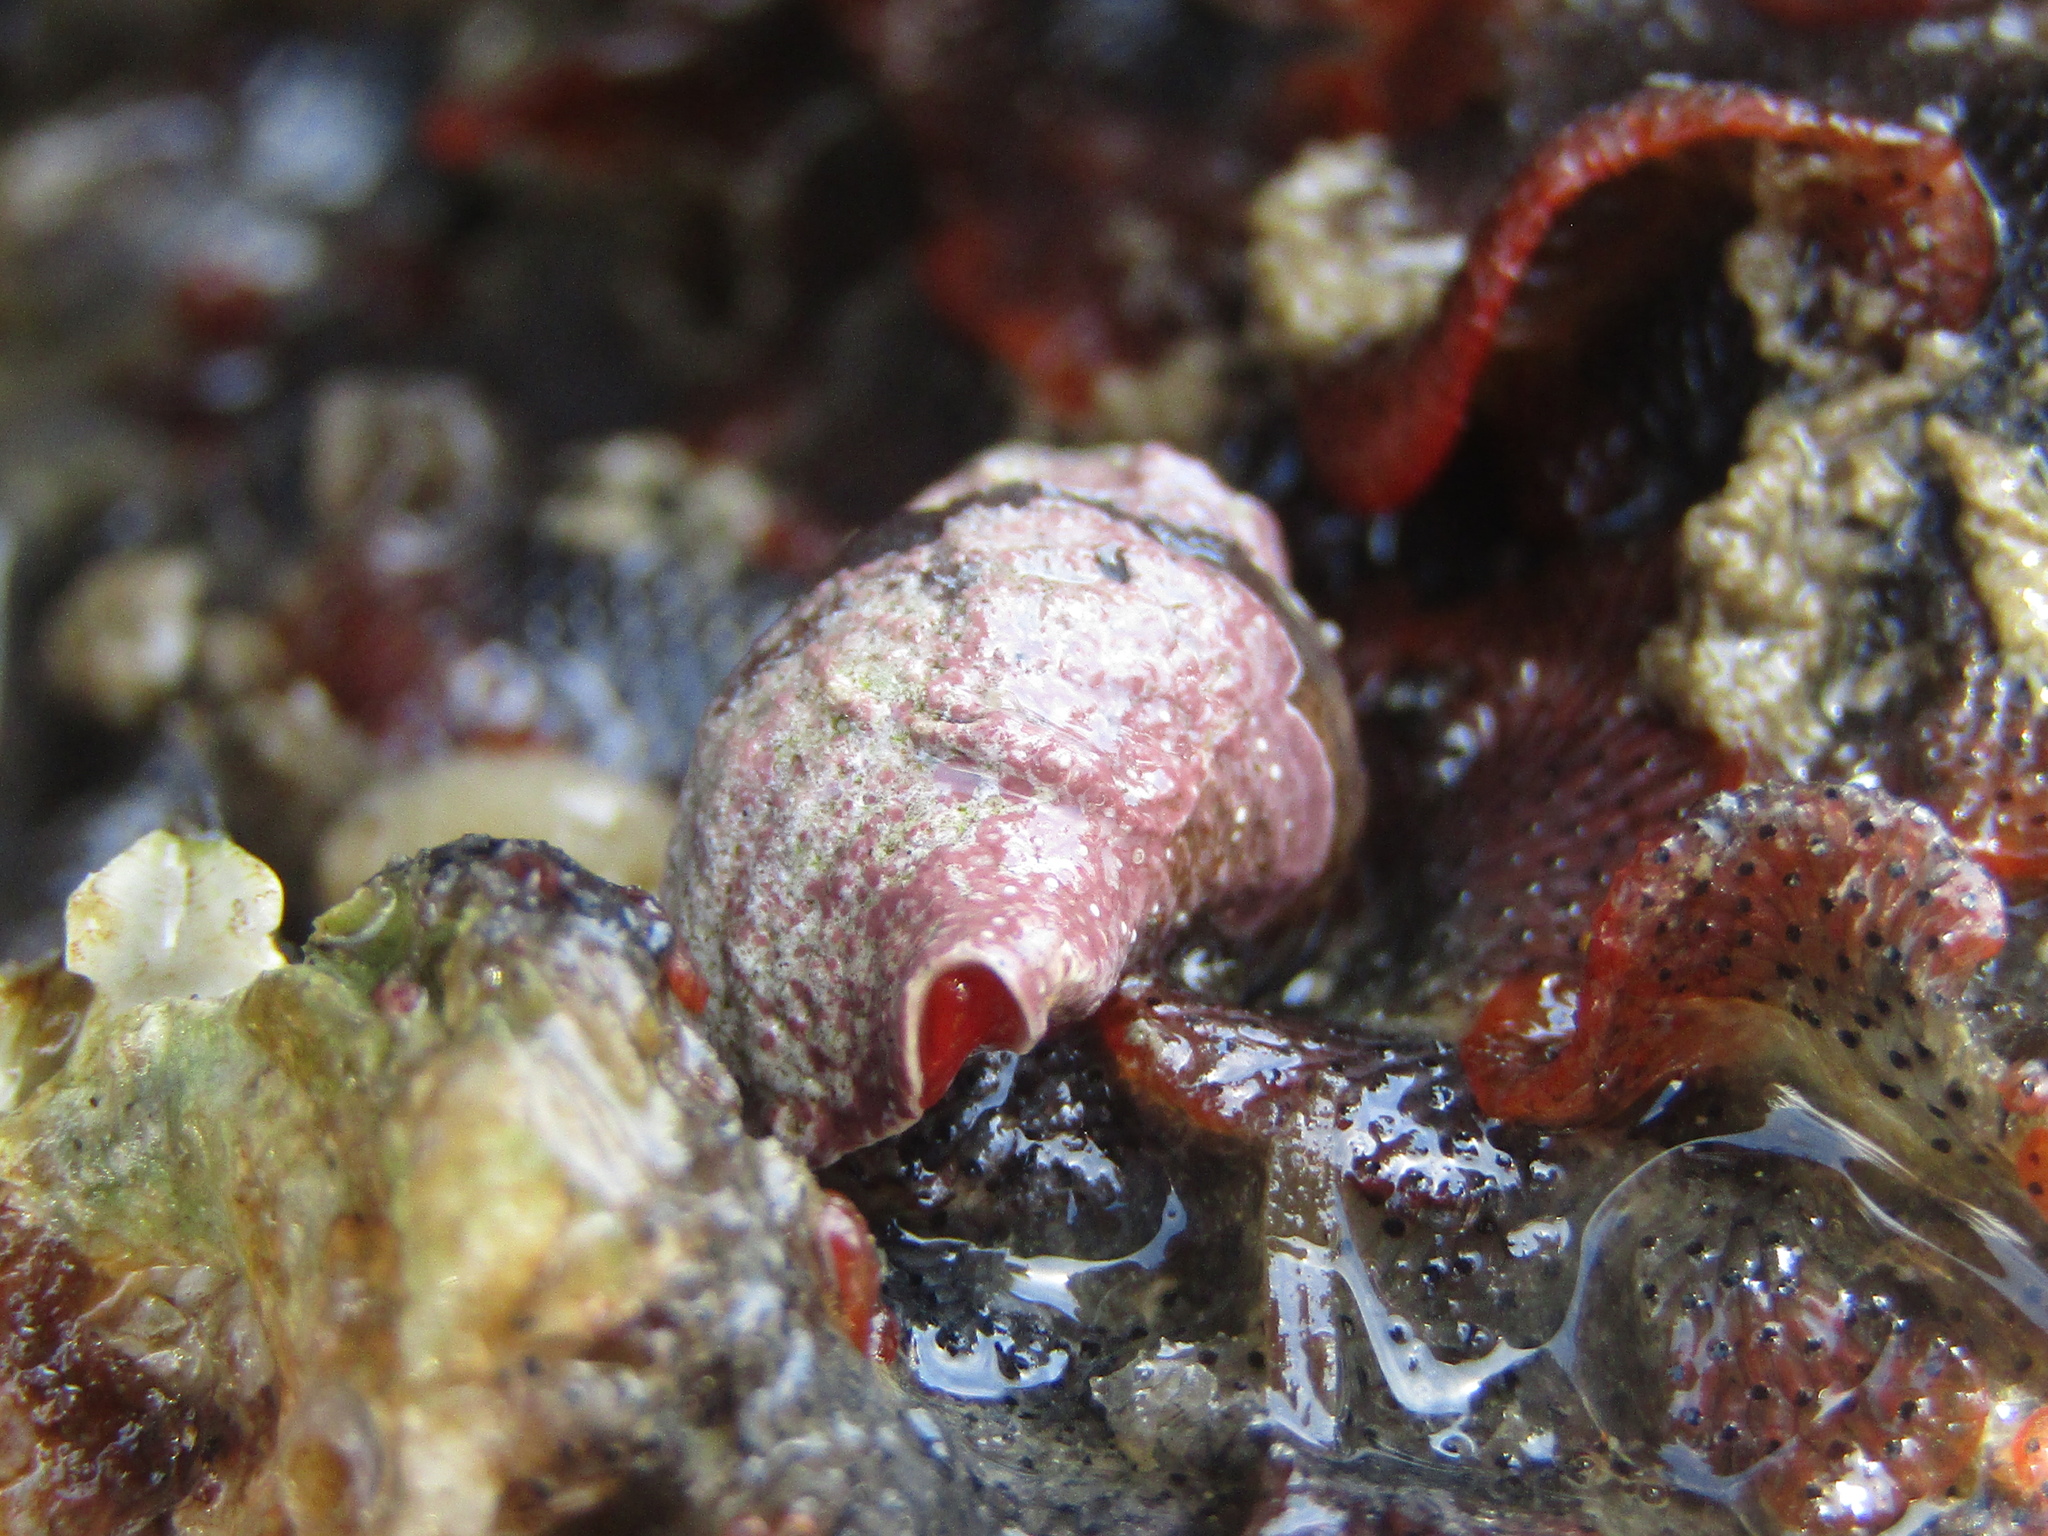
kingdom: Animalia
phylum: Mollusca
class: Gastropoda
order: Neogastropoda
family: Fasciolariidae
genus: Taron
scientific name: Taron dubius
